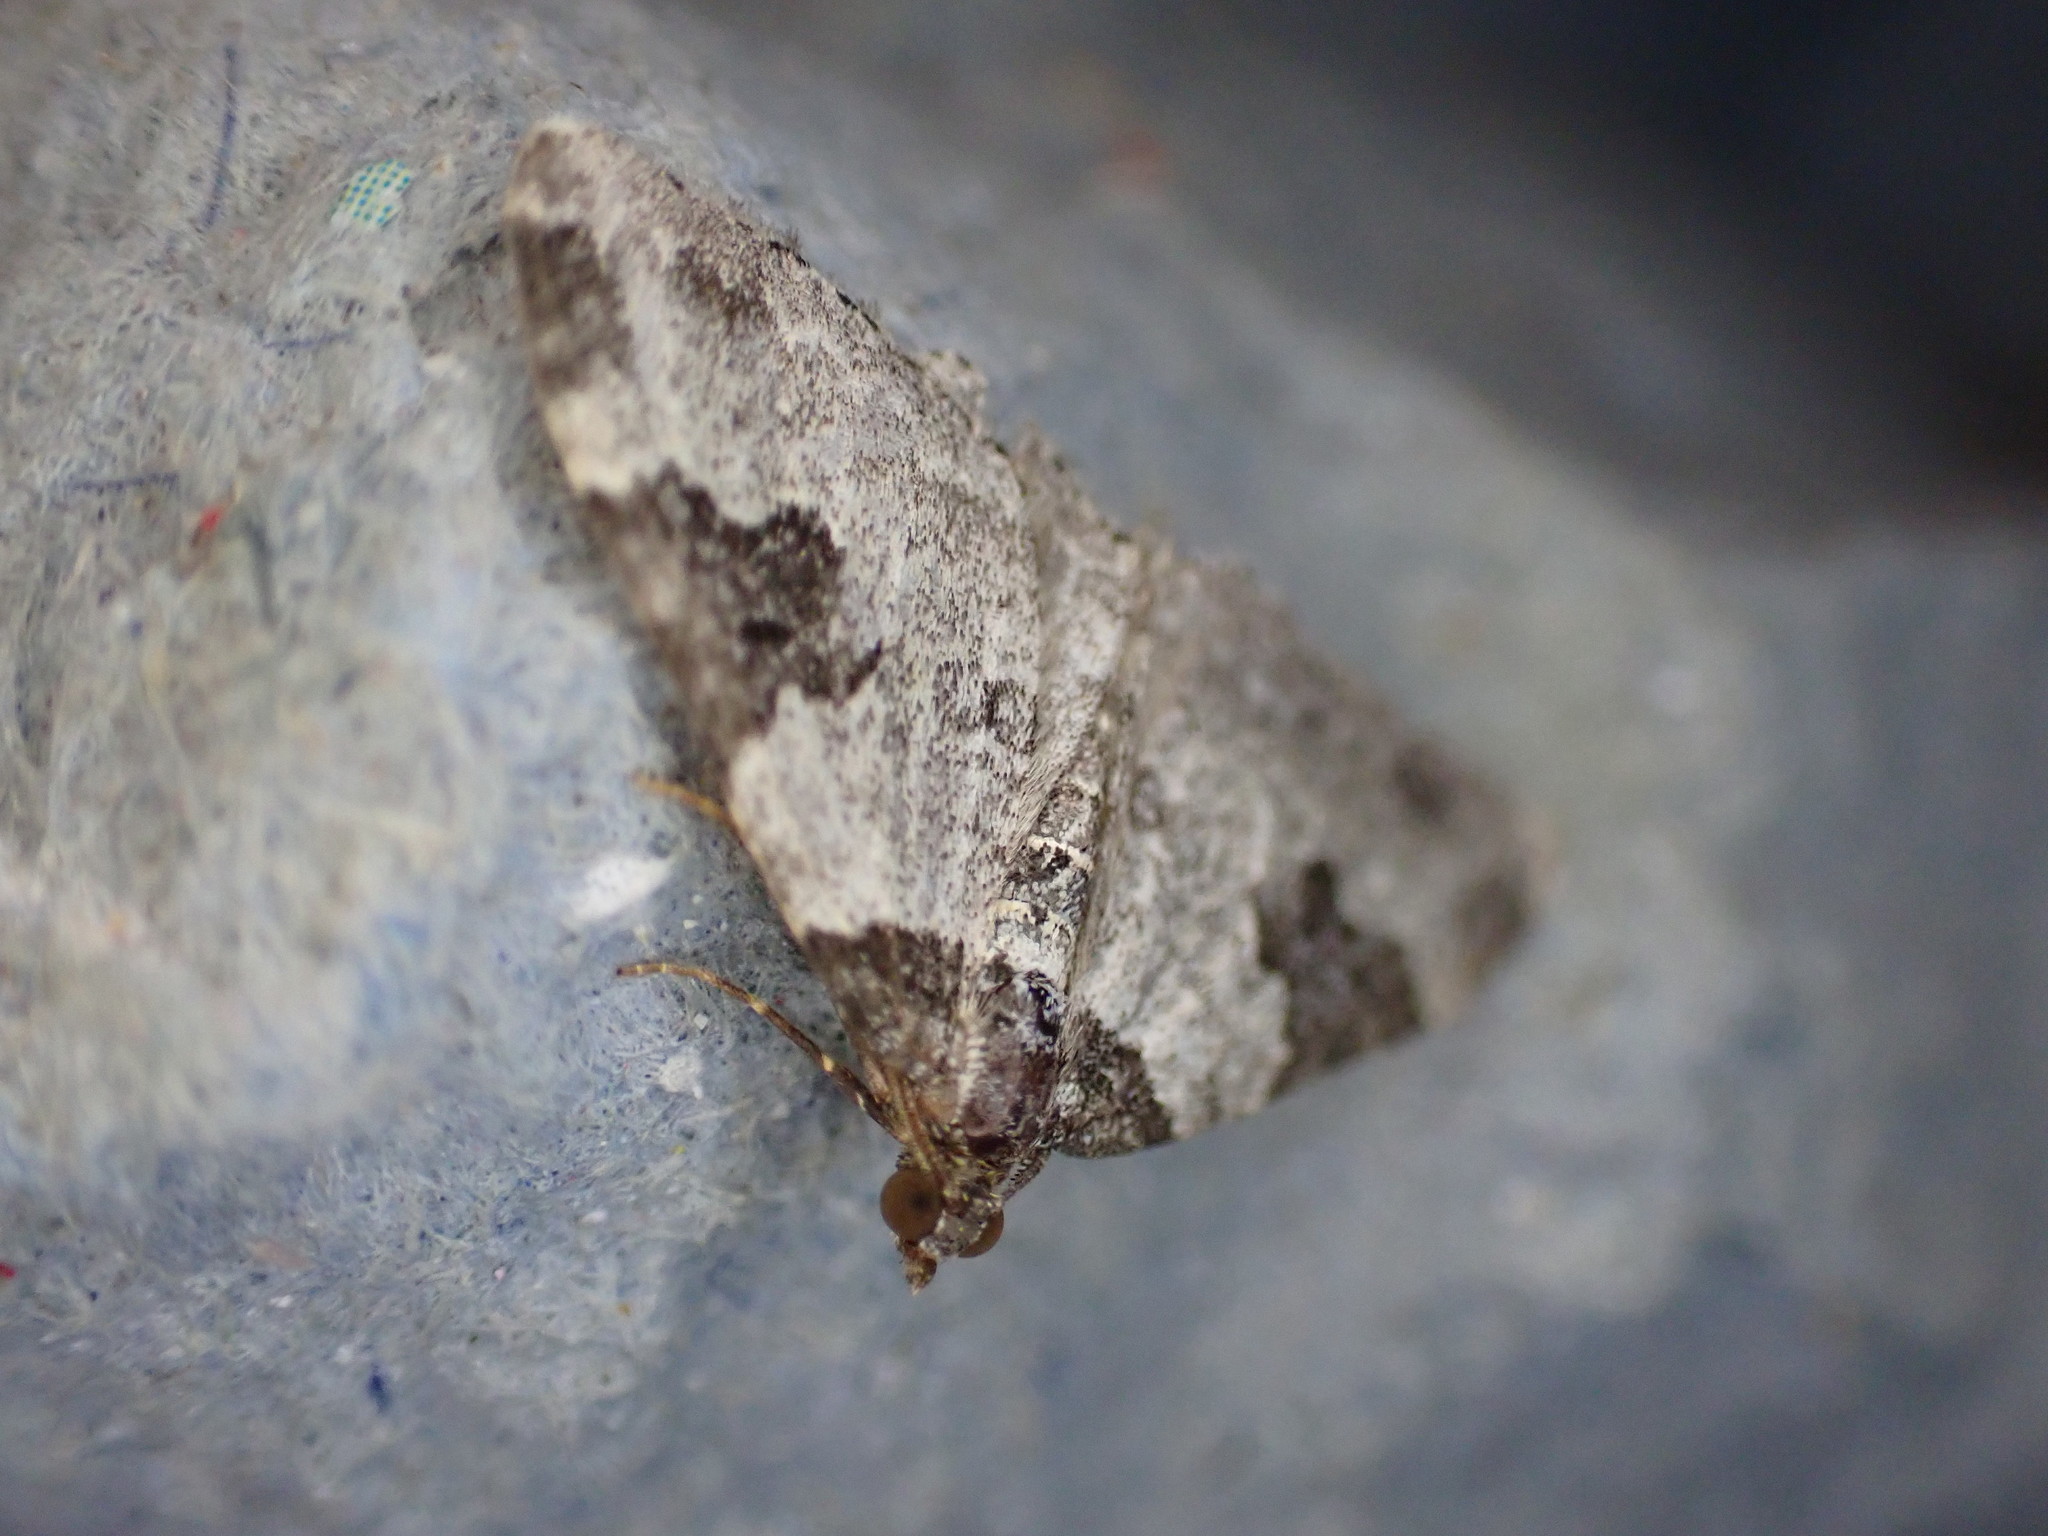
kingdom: Animalia
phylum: Arthropoda
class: Insecta
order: Lepidoptera
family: Geometridae
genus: Xanthorhoe
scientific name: Xanthorhoe fluctuata
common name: Garden carpet
